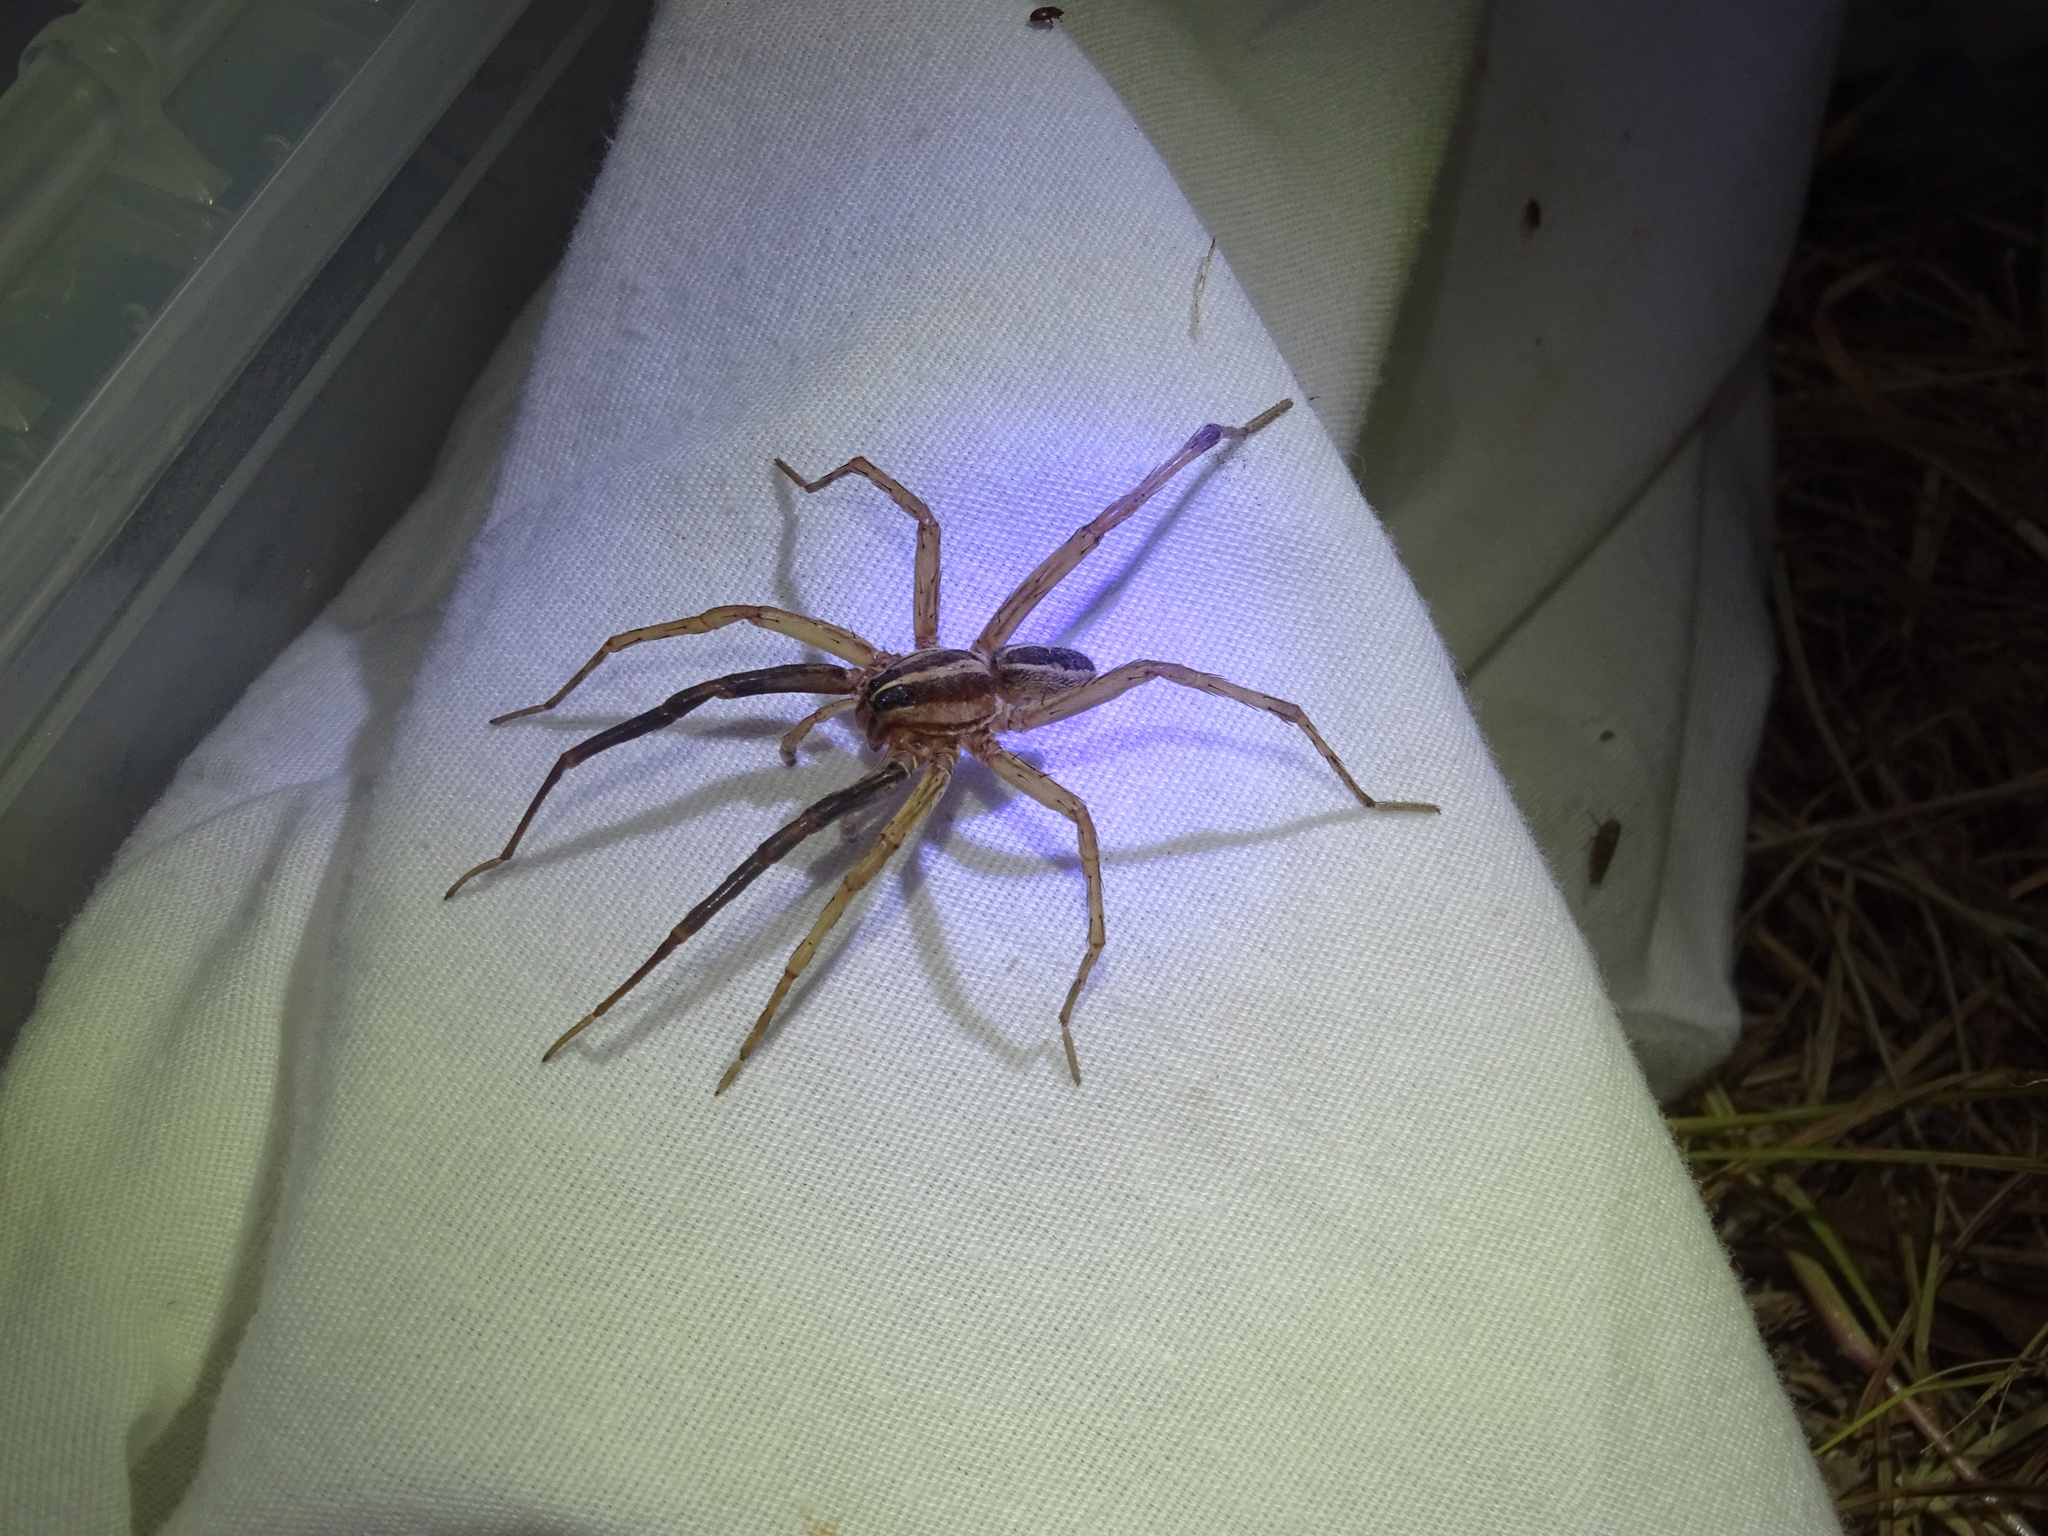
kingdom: Animalia
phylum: Arthropoda
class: Arachnida
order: Araneae
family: Lycosidae
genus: Rabidosa
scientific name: Rabidosa rabida
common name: Rabid wolf spider
